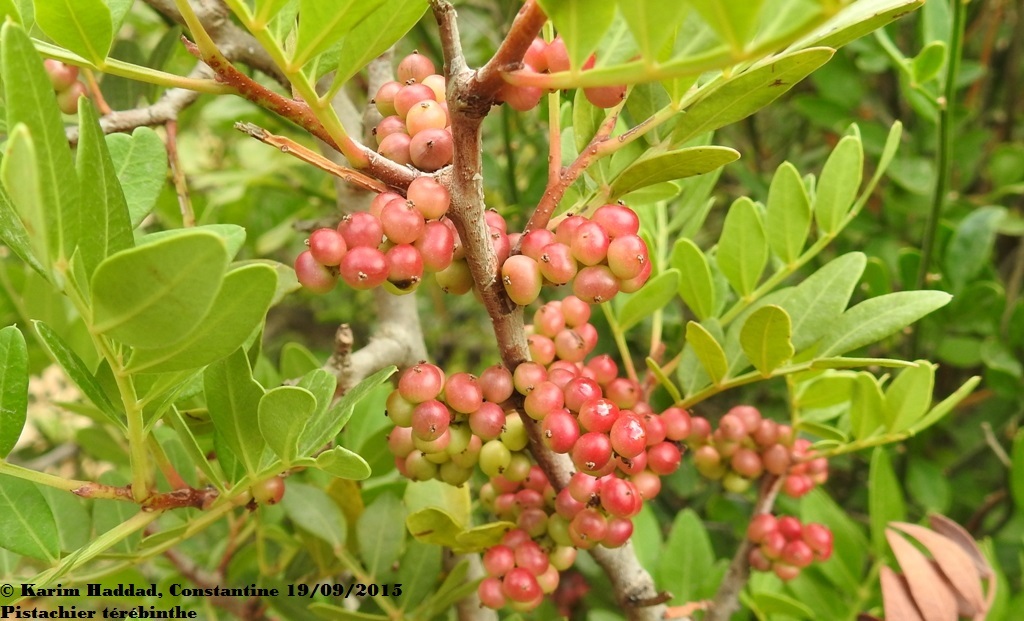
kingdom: Plantae
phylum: Tracheophyta
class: Magnoliopsida
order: Sapindales
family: Anacardiaceae
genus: Pistacia
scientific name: Pistacia lentiscus
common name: Lentisk
